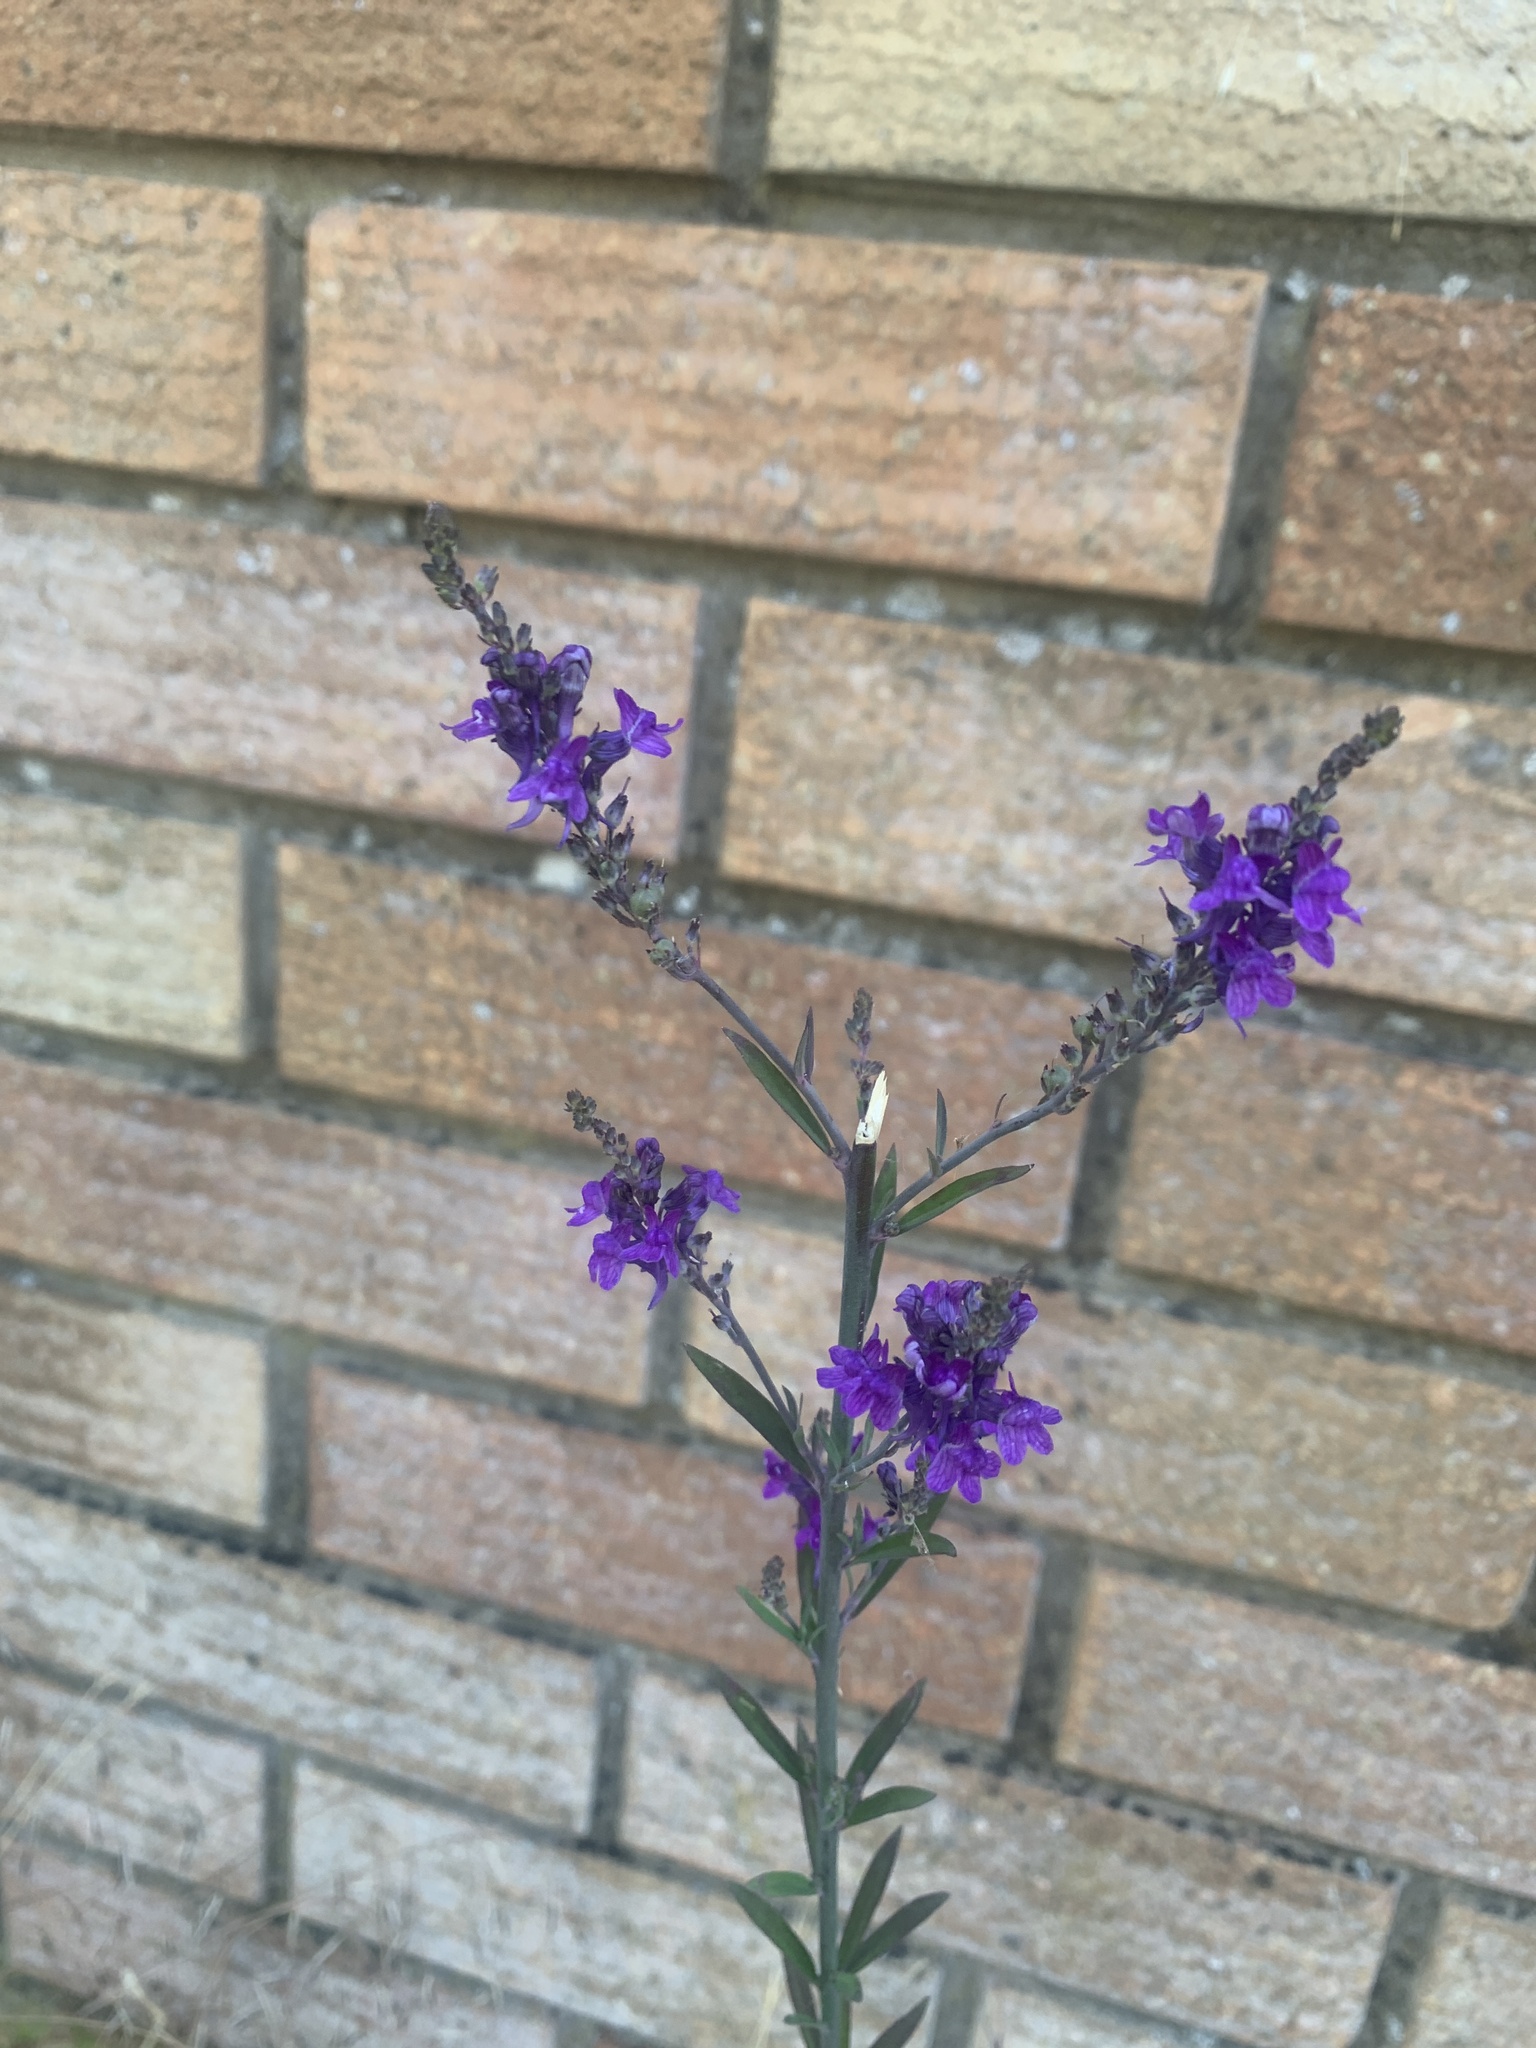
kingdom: Plantae
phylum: Tracheophyta
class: Magnoliopsida
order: Lamiales
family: Plantaginaceae
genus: Linaria
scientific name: Linaria purpurea
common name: Purple toadflax
